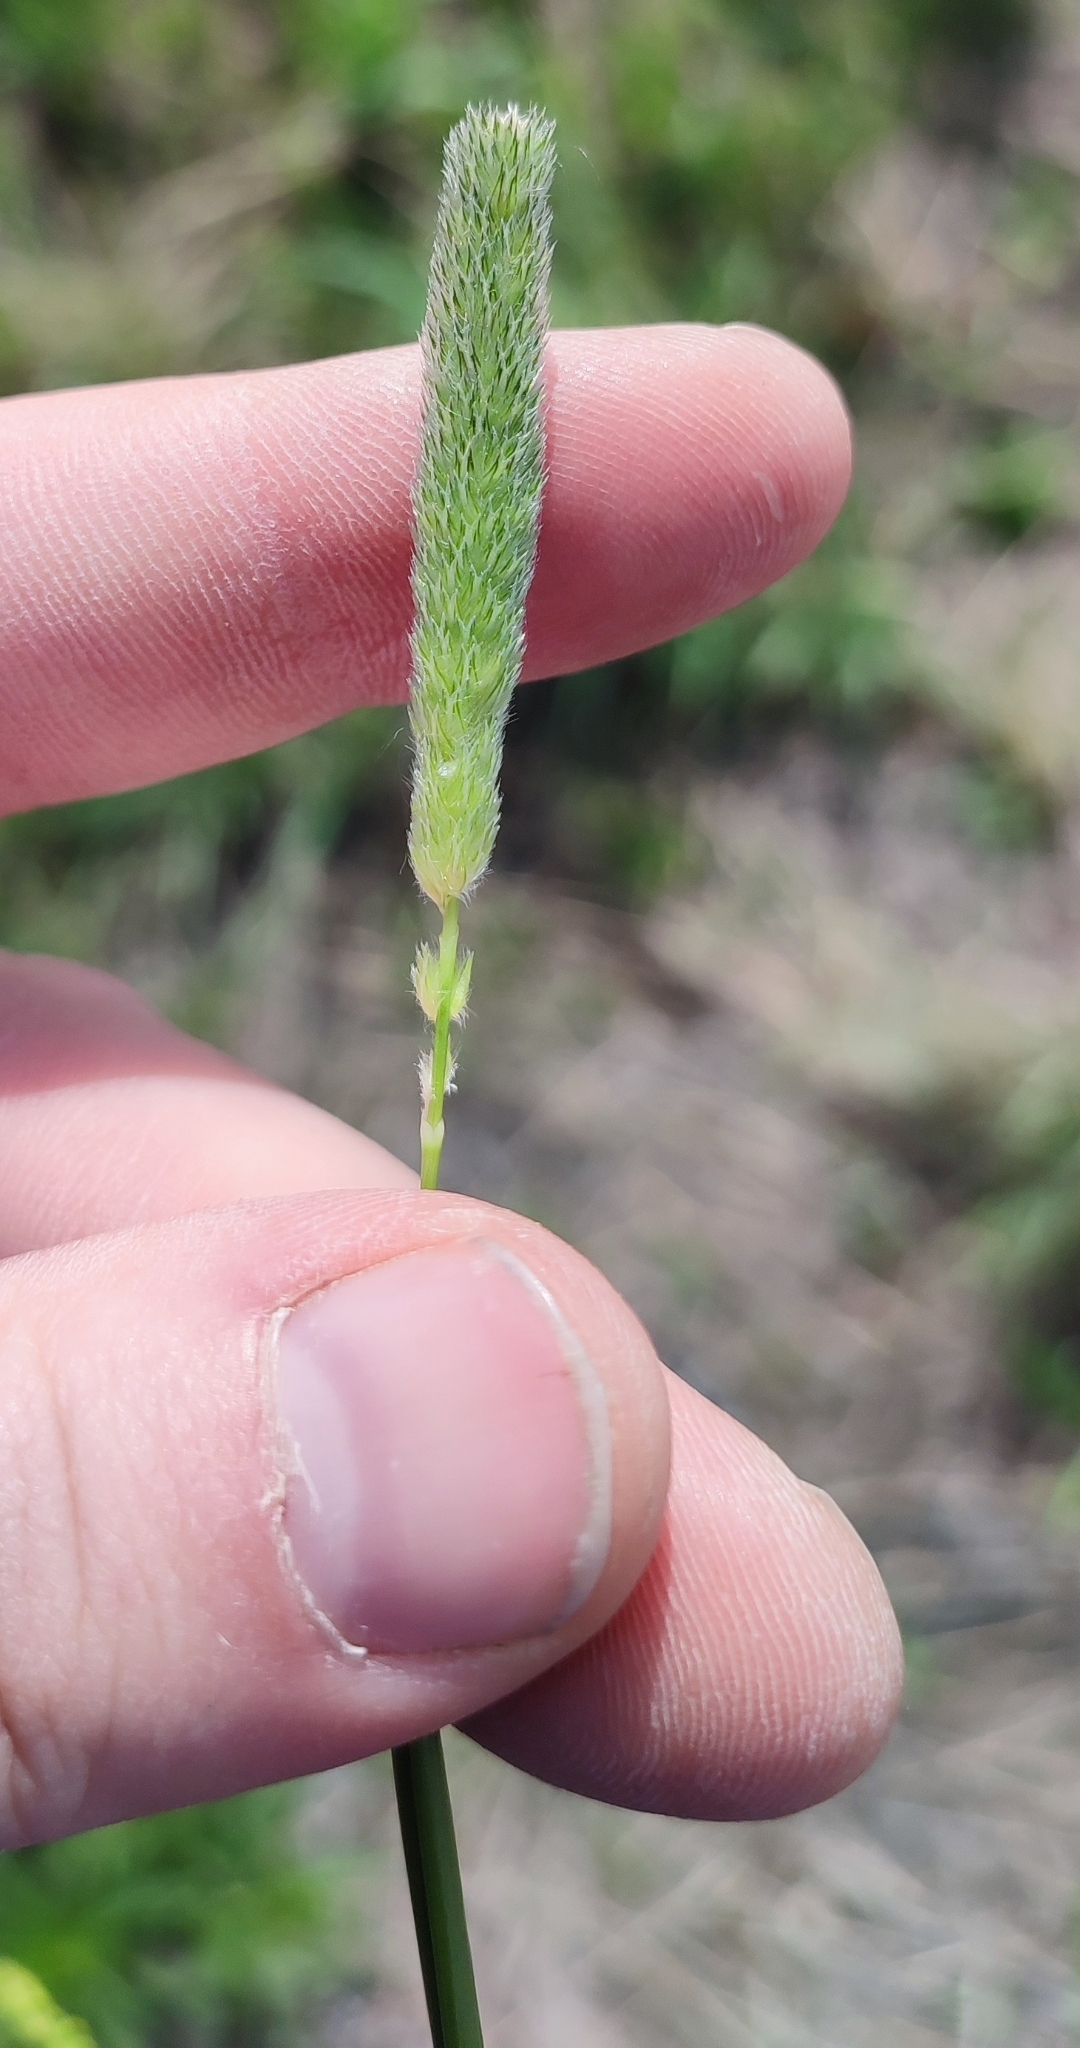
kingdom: Plantae
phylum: Tracheophyta
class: Liliopsida
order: Poales
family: Poaceae
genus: Alopecurus
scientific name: Alopecurus arundinaceus
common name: Creeping meadow foxtail
